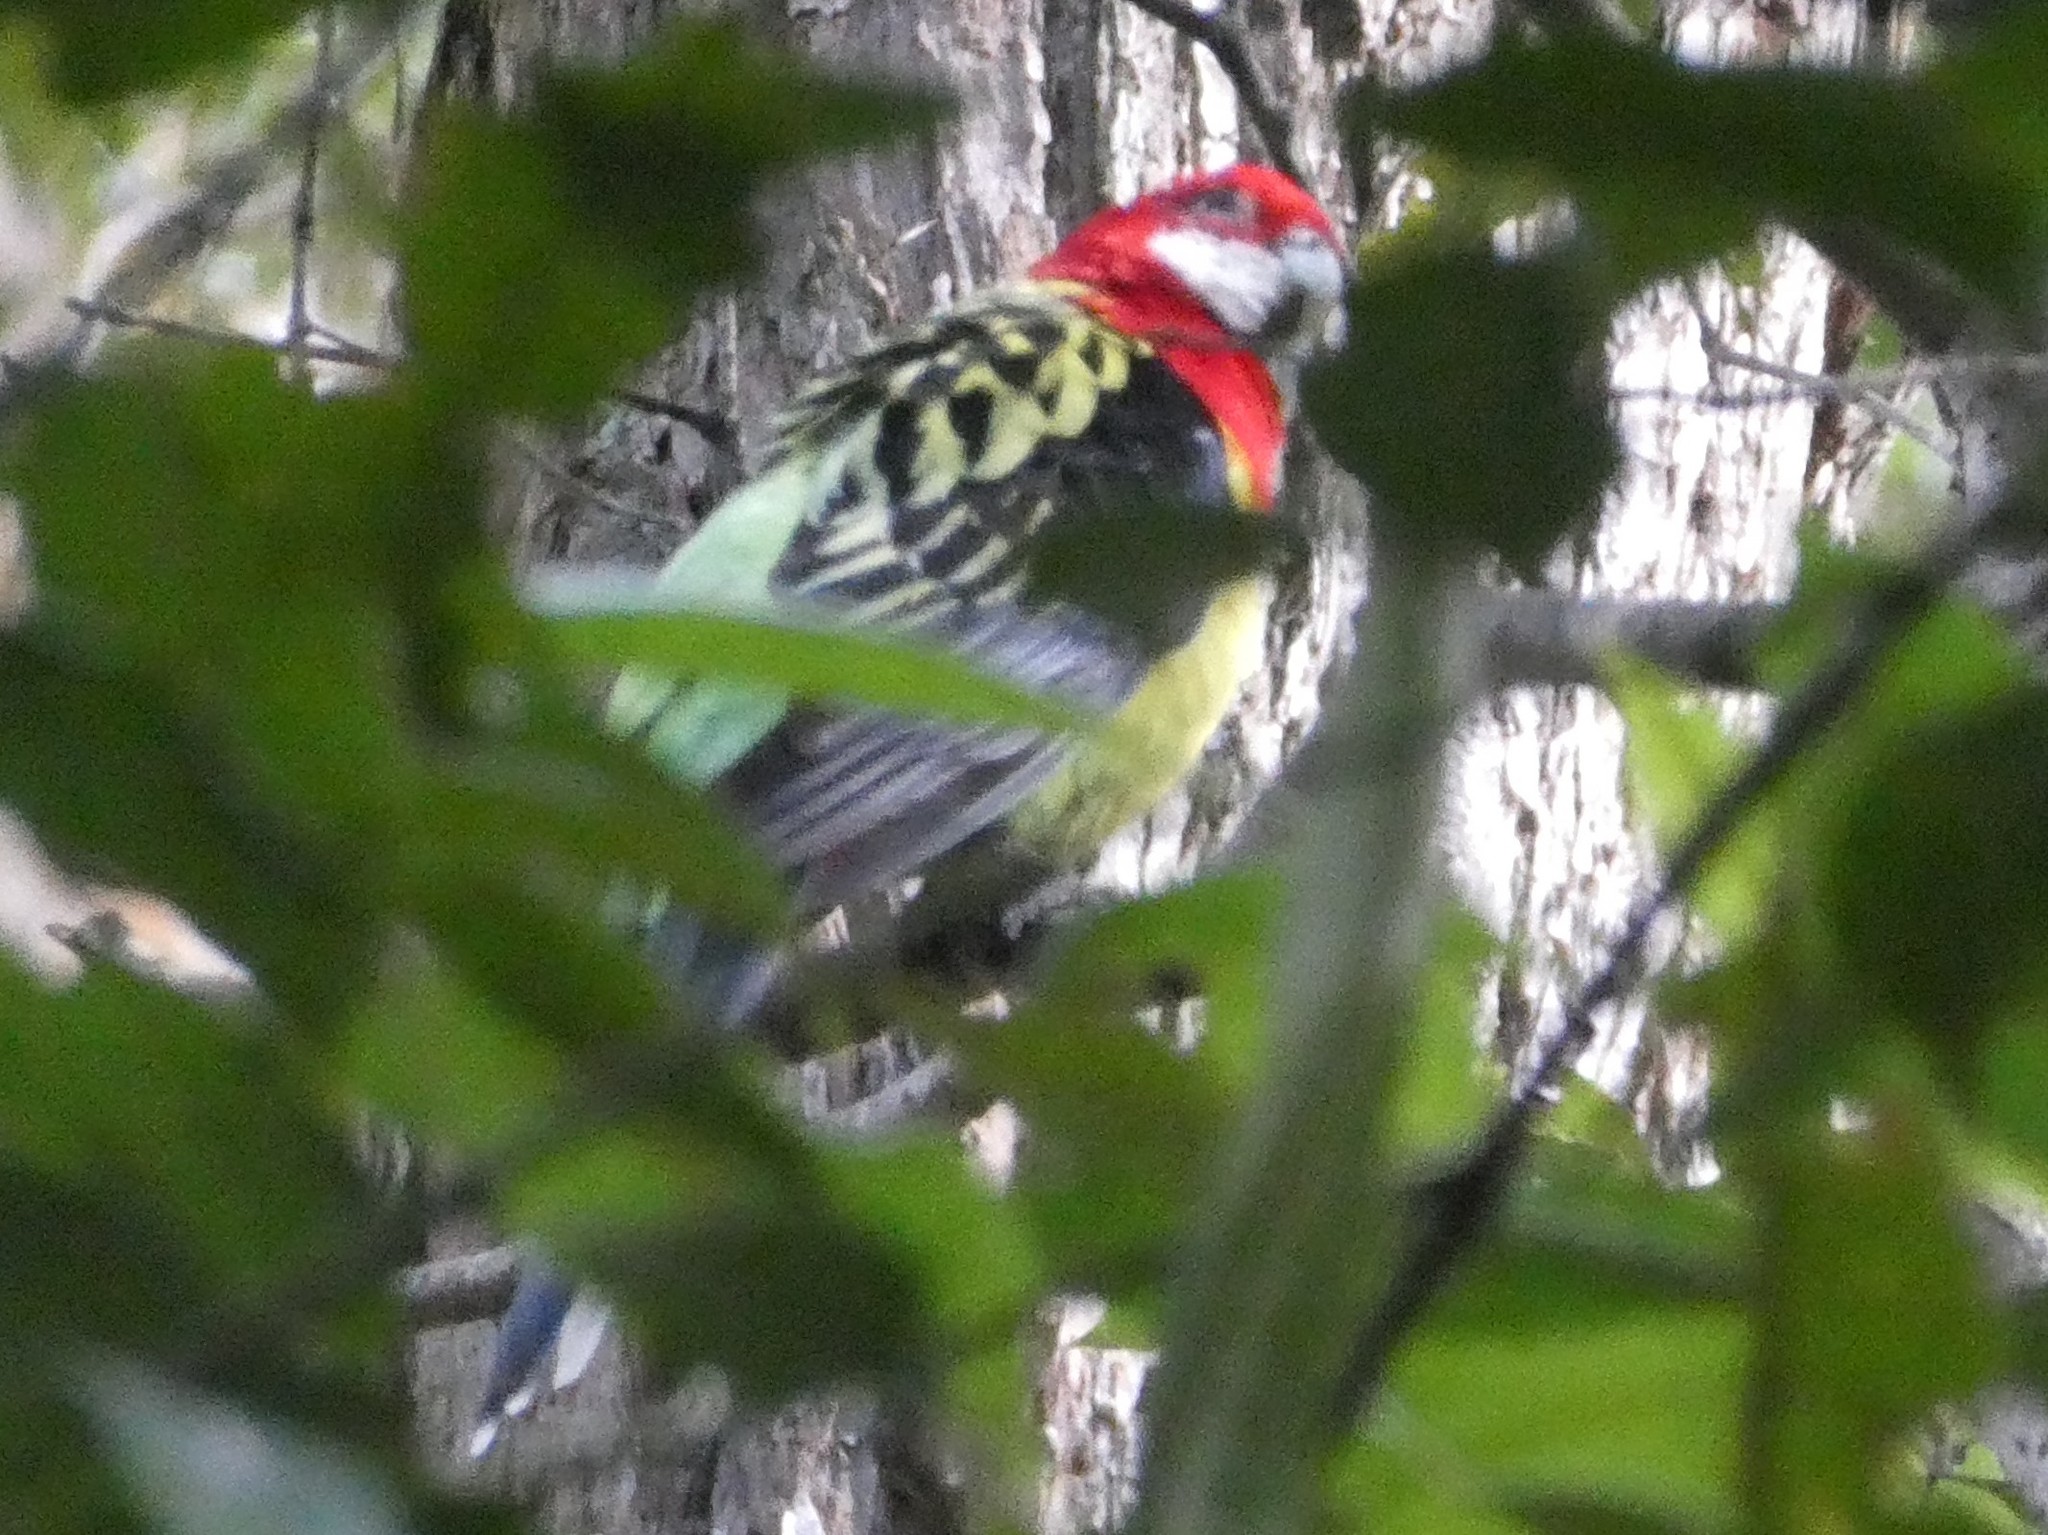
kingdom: Animalia
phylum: Chordata
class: Aves
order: Psittaciformes
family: Psittacidae
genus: Platycercus
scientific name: Platycercus eximius
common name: Eastern rosella
